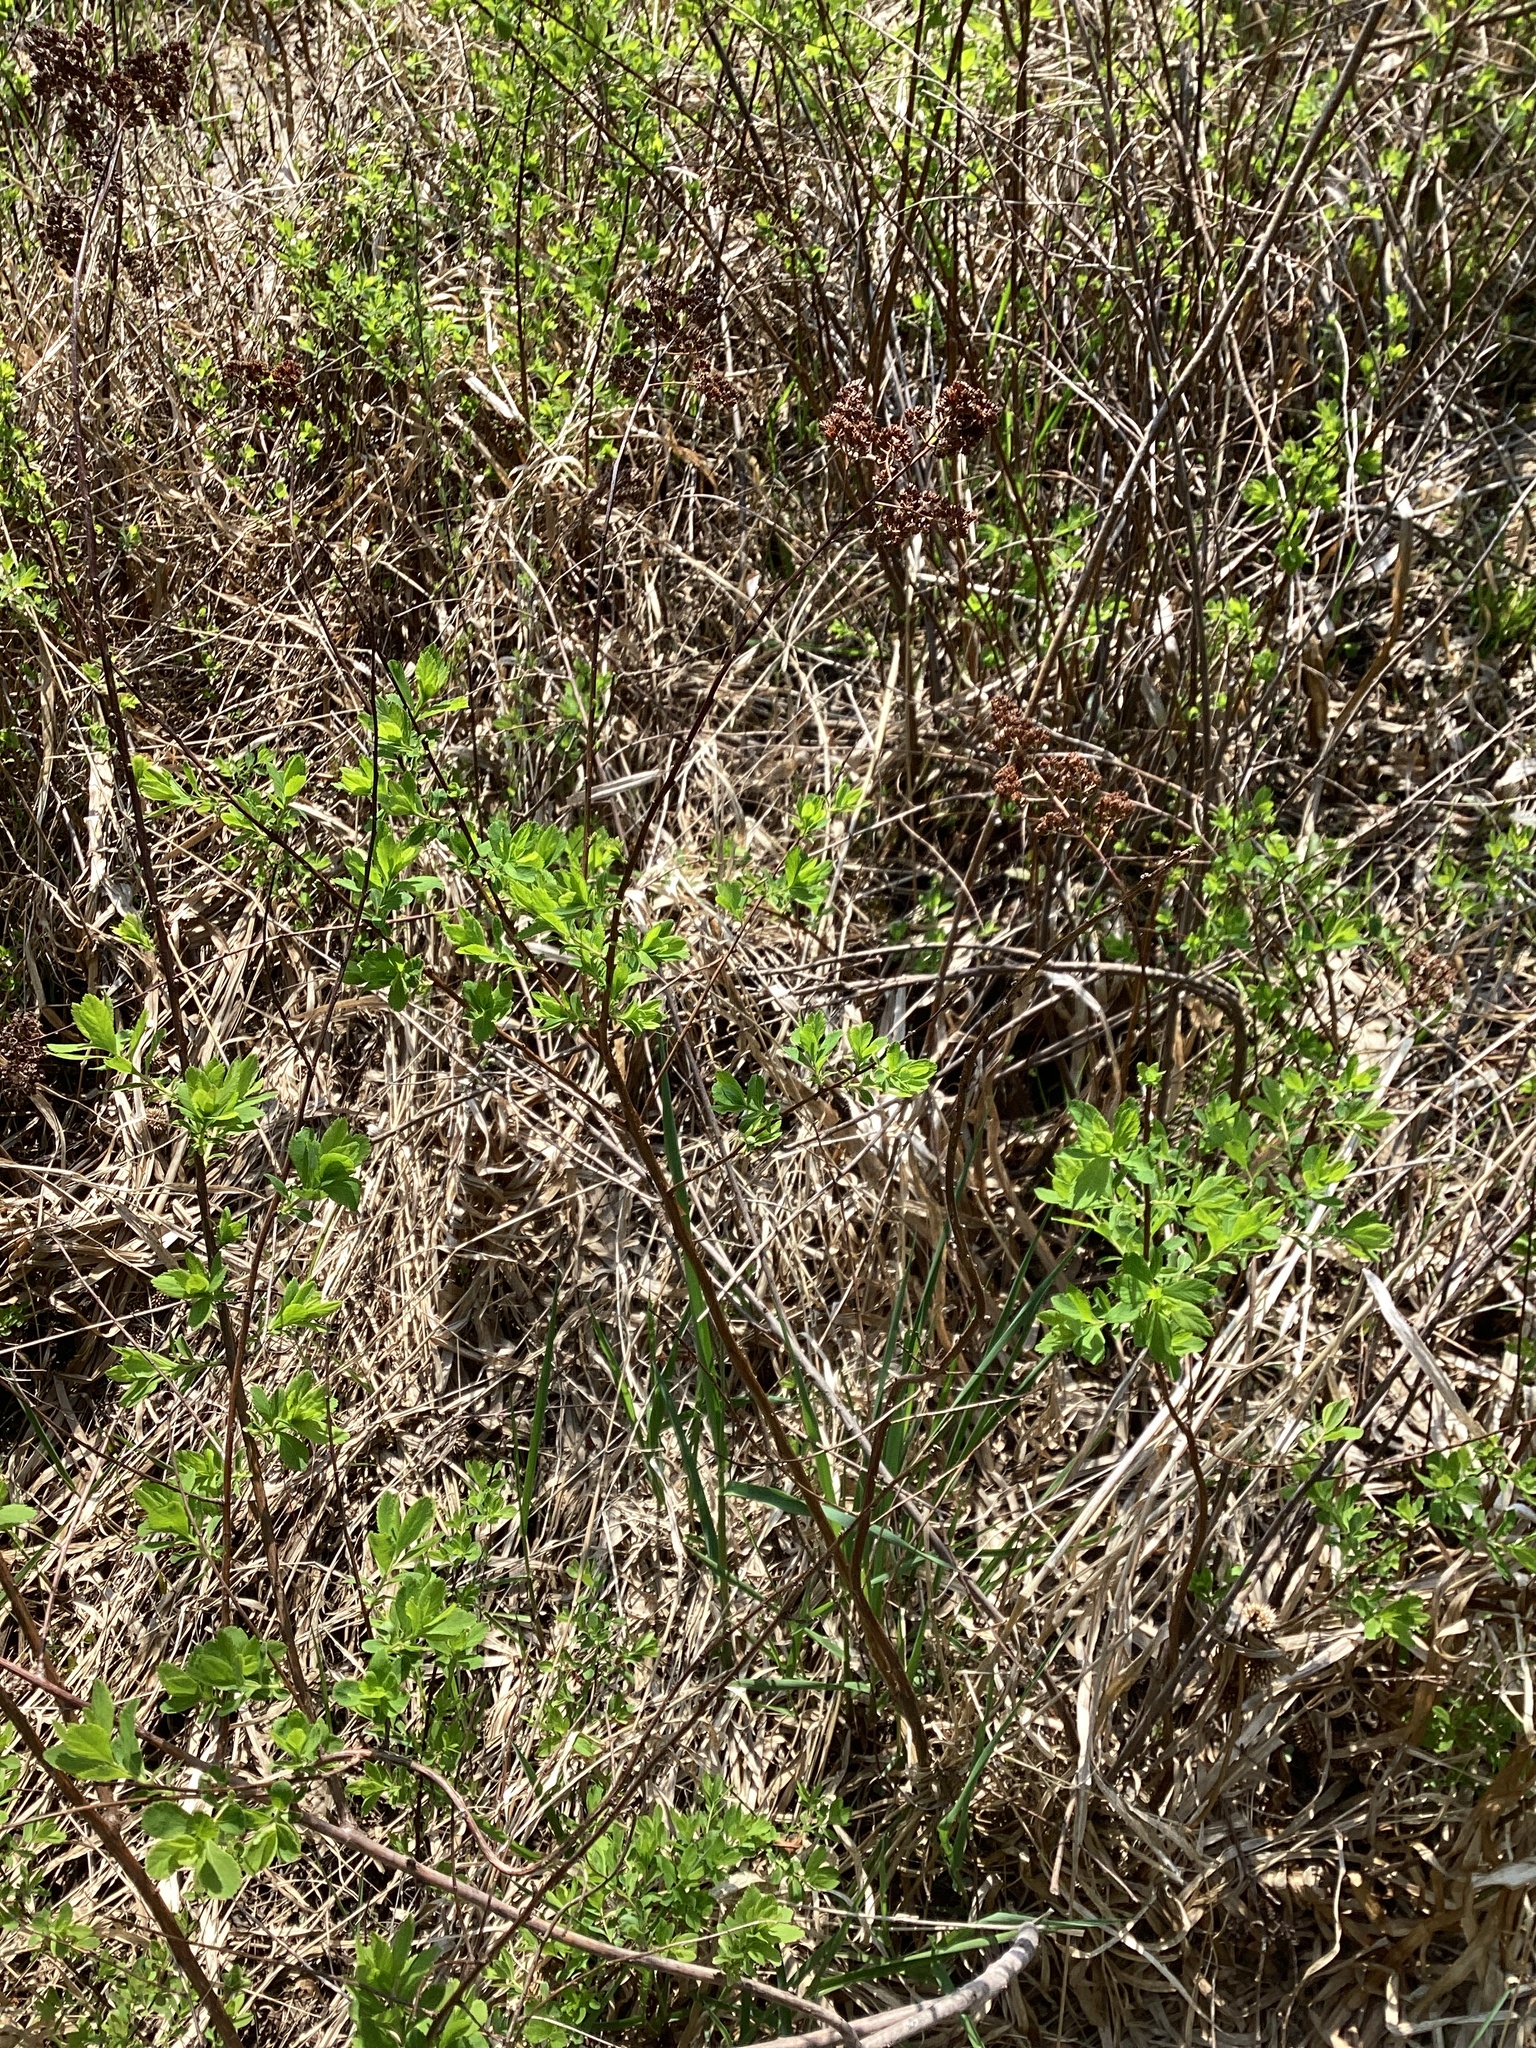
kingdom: Plantae
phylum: Tracheophyta
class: Magnoliopsida
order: Rosales
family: Rosaceae
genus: Spiraea
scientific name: Spiraea alba
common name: Pale bridewort
